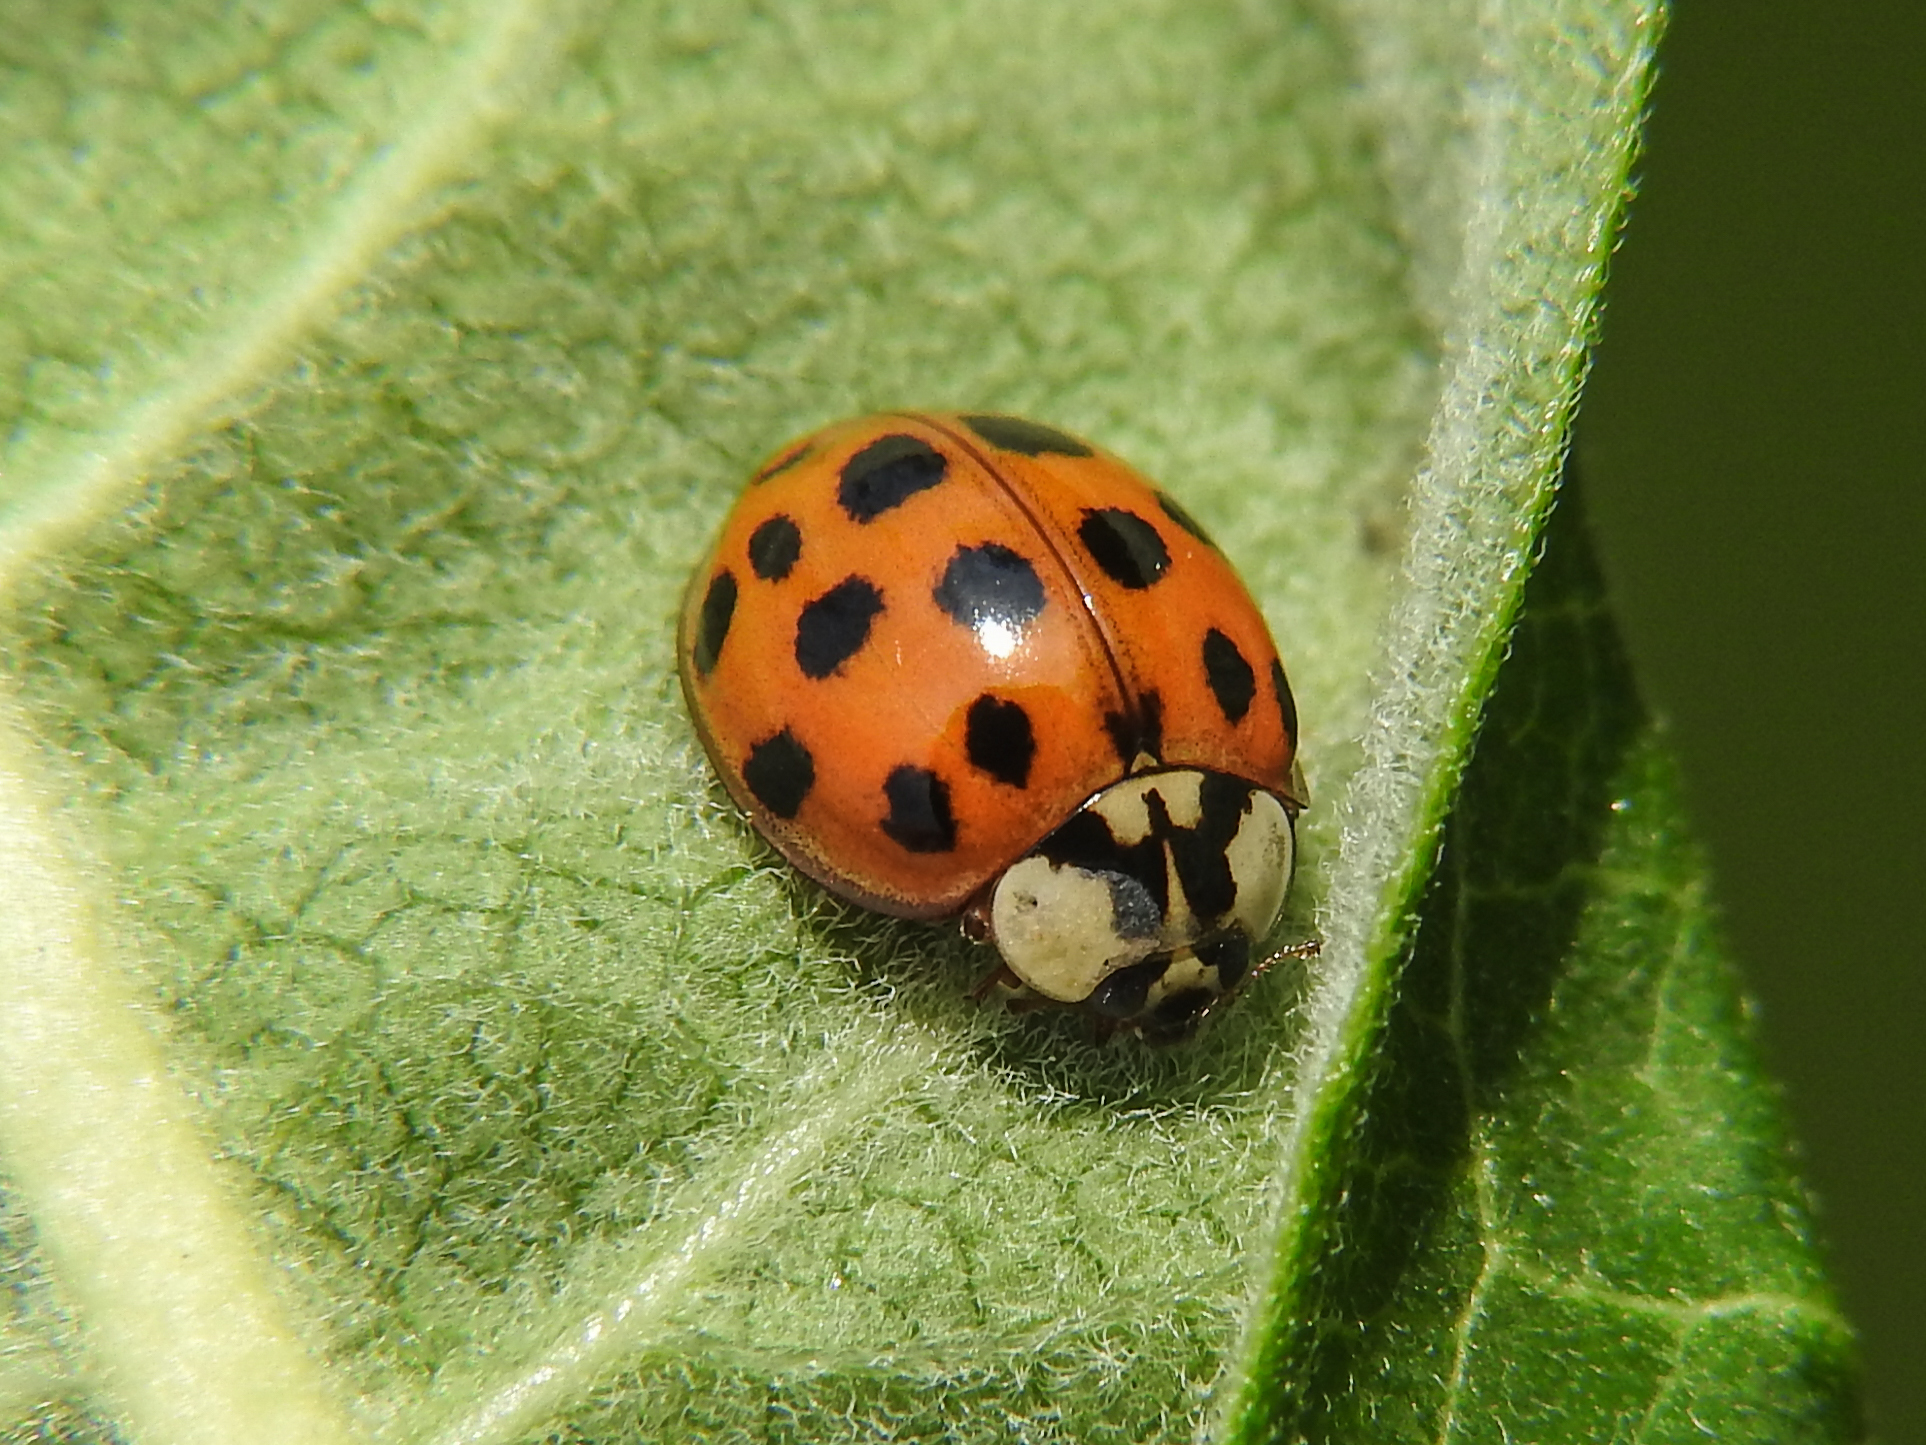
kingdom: Animalia
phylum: Arthropoda
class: Insecta
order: Coleoptera
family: Coccinellidae
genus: Harmonia
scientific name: Harmonia axyridis
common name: Harlequin ladybird
